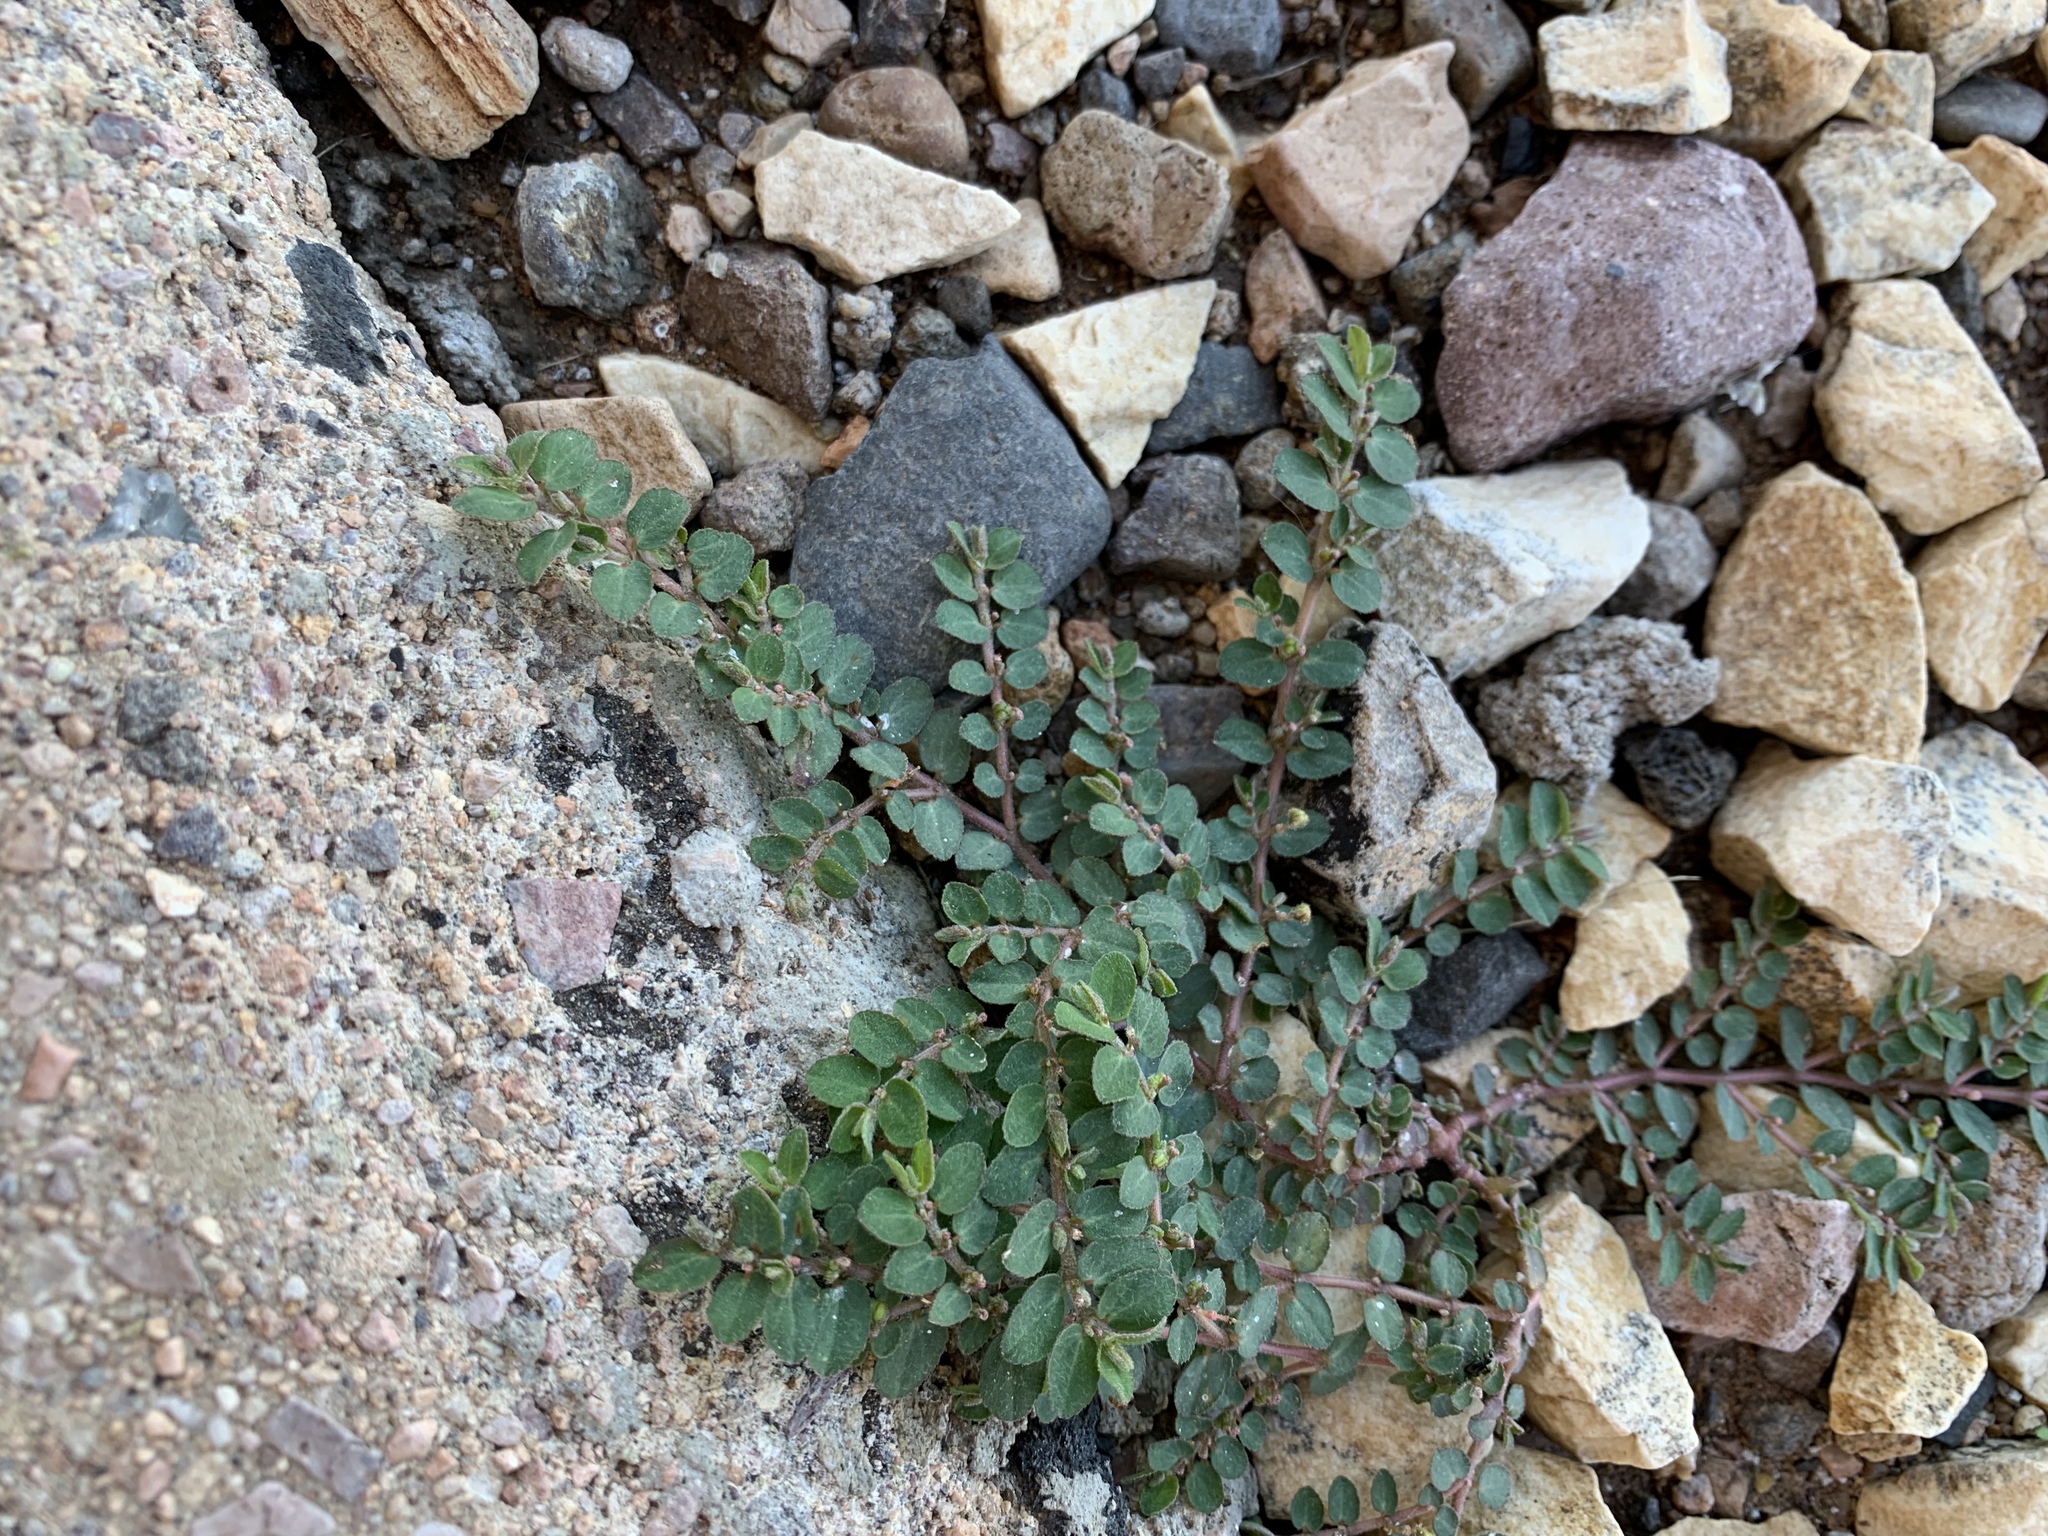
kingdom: Plantae
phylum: Tracheophyta
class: Magnoliopsida
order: Malpighiales
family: Euphorbiaceae
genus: Euphorbia
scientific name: Euphorbia prostrata
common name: Prostrate sandmat
